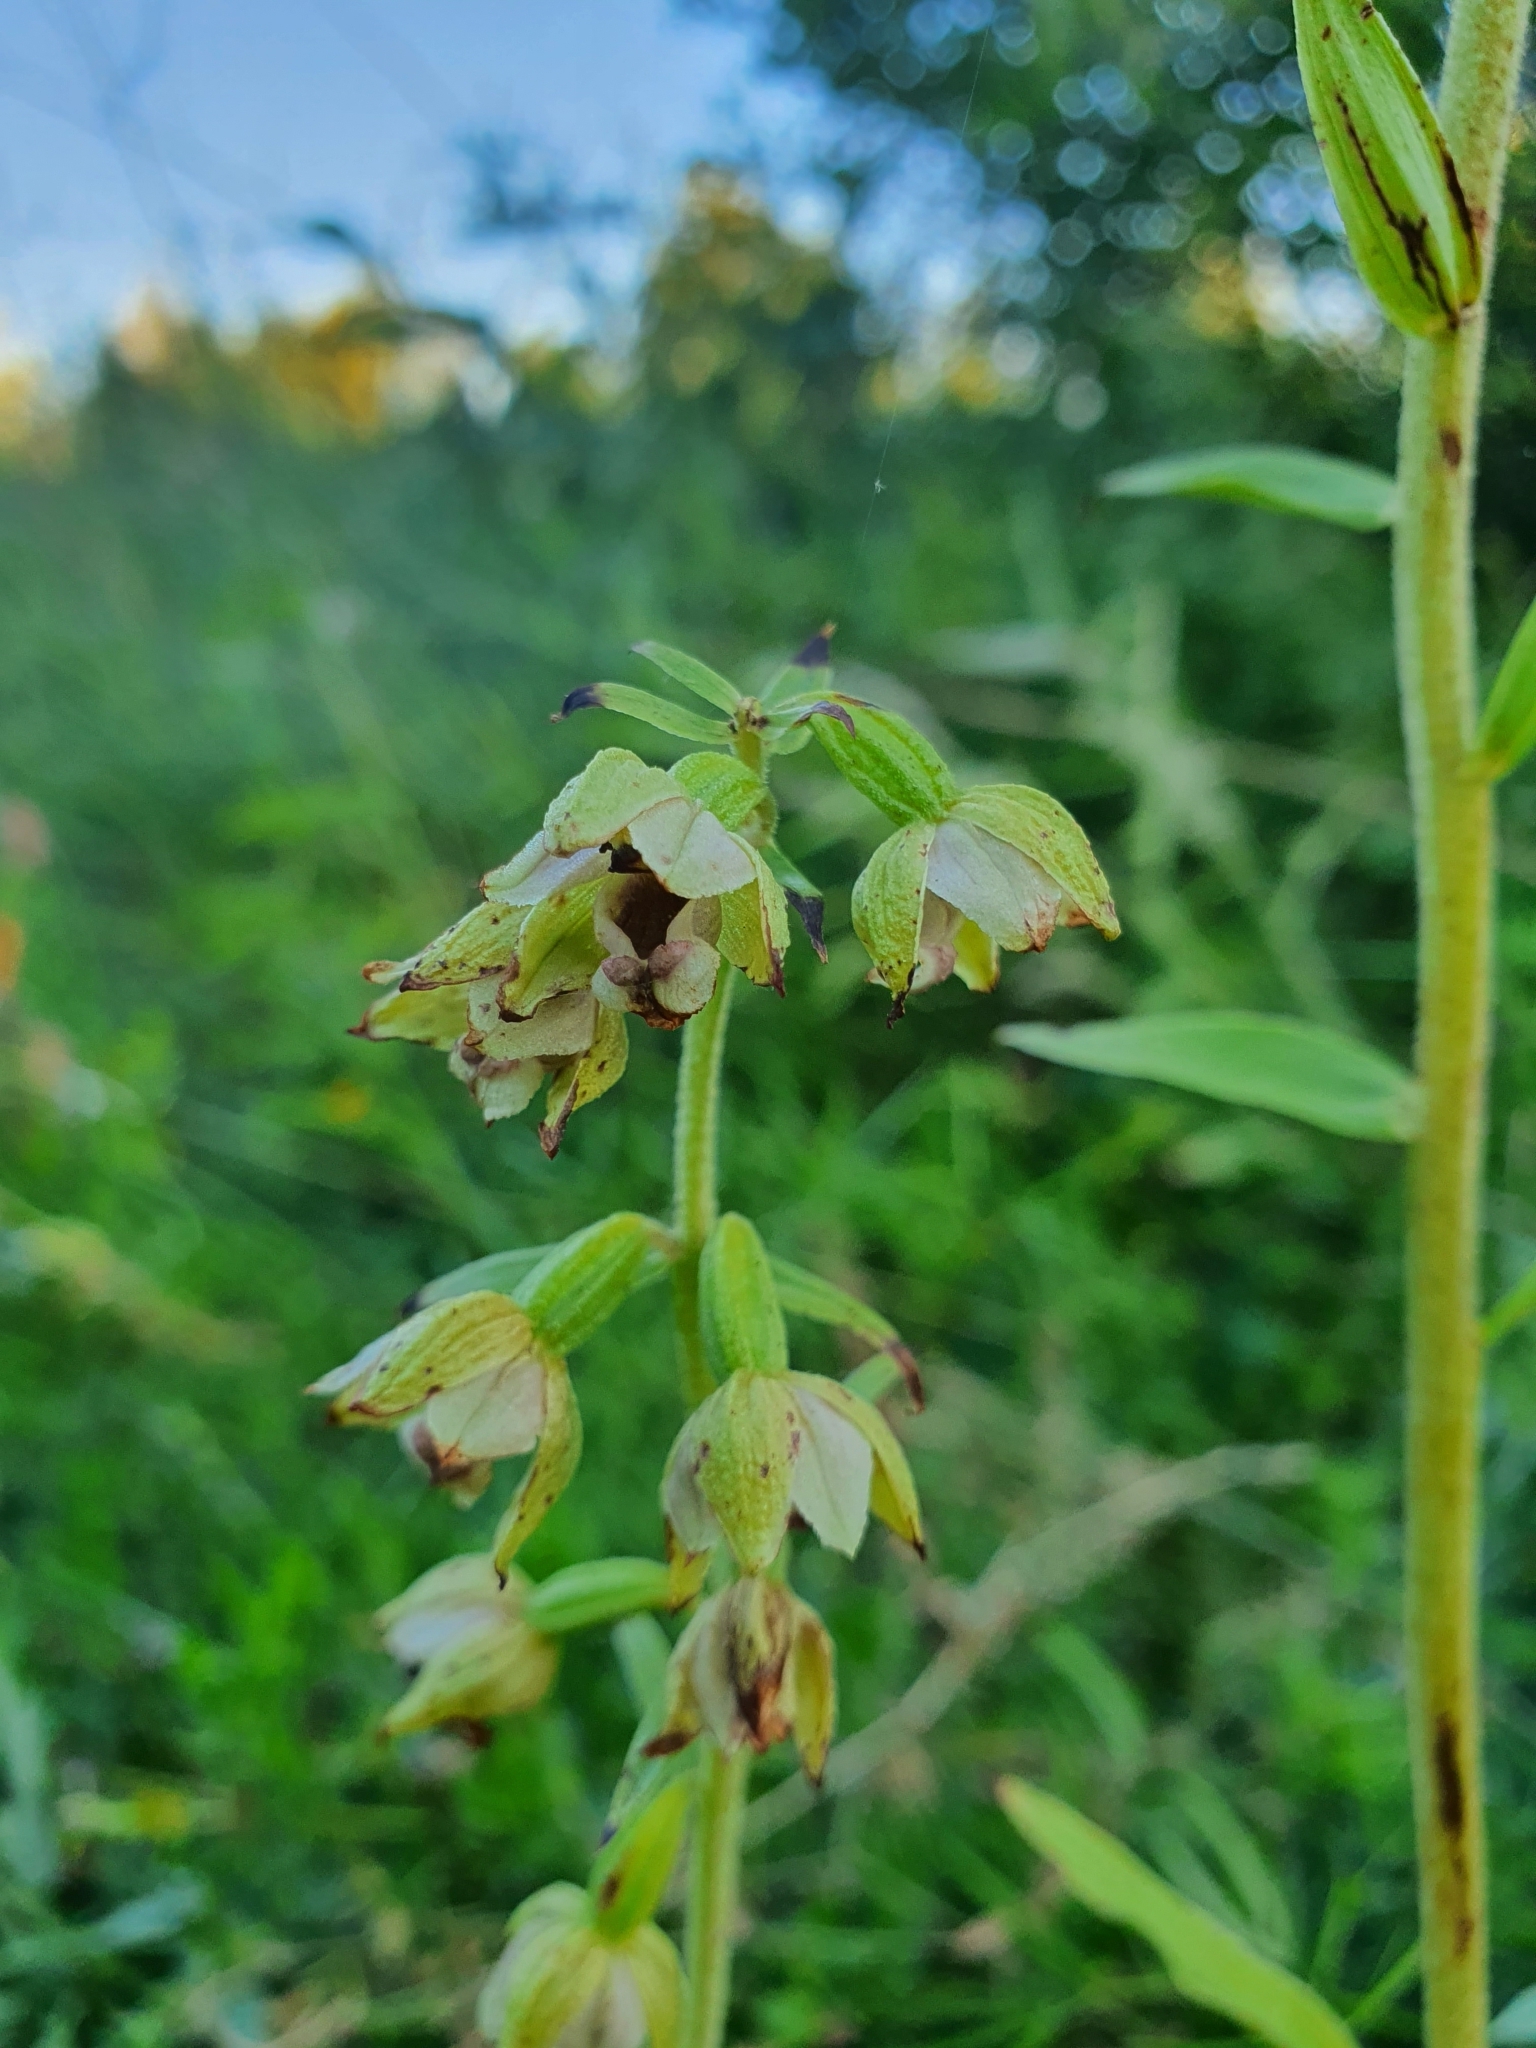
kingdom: Plantae
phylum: Tracheophyta
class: Liliopsida
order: Asparagales
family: Orchidaceae
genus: Epipactis
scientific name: Epipactis helleborine
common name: Broad-leaved helleborine
